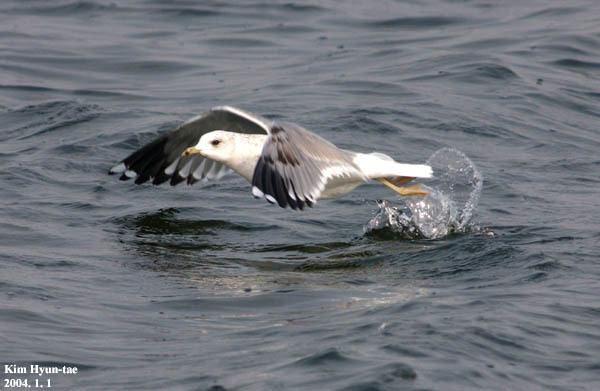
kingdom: Animalia
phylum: Chordata
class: Aves
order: Charadriiformes
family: Laridae
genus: Larus
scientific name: Larus canus
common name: Mew gull
